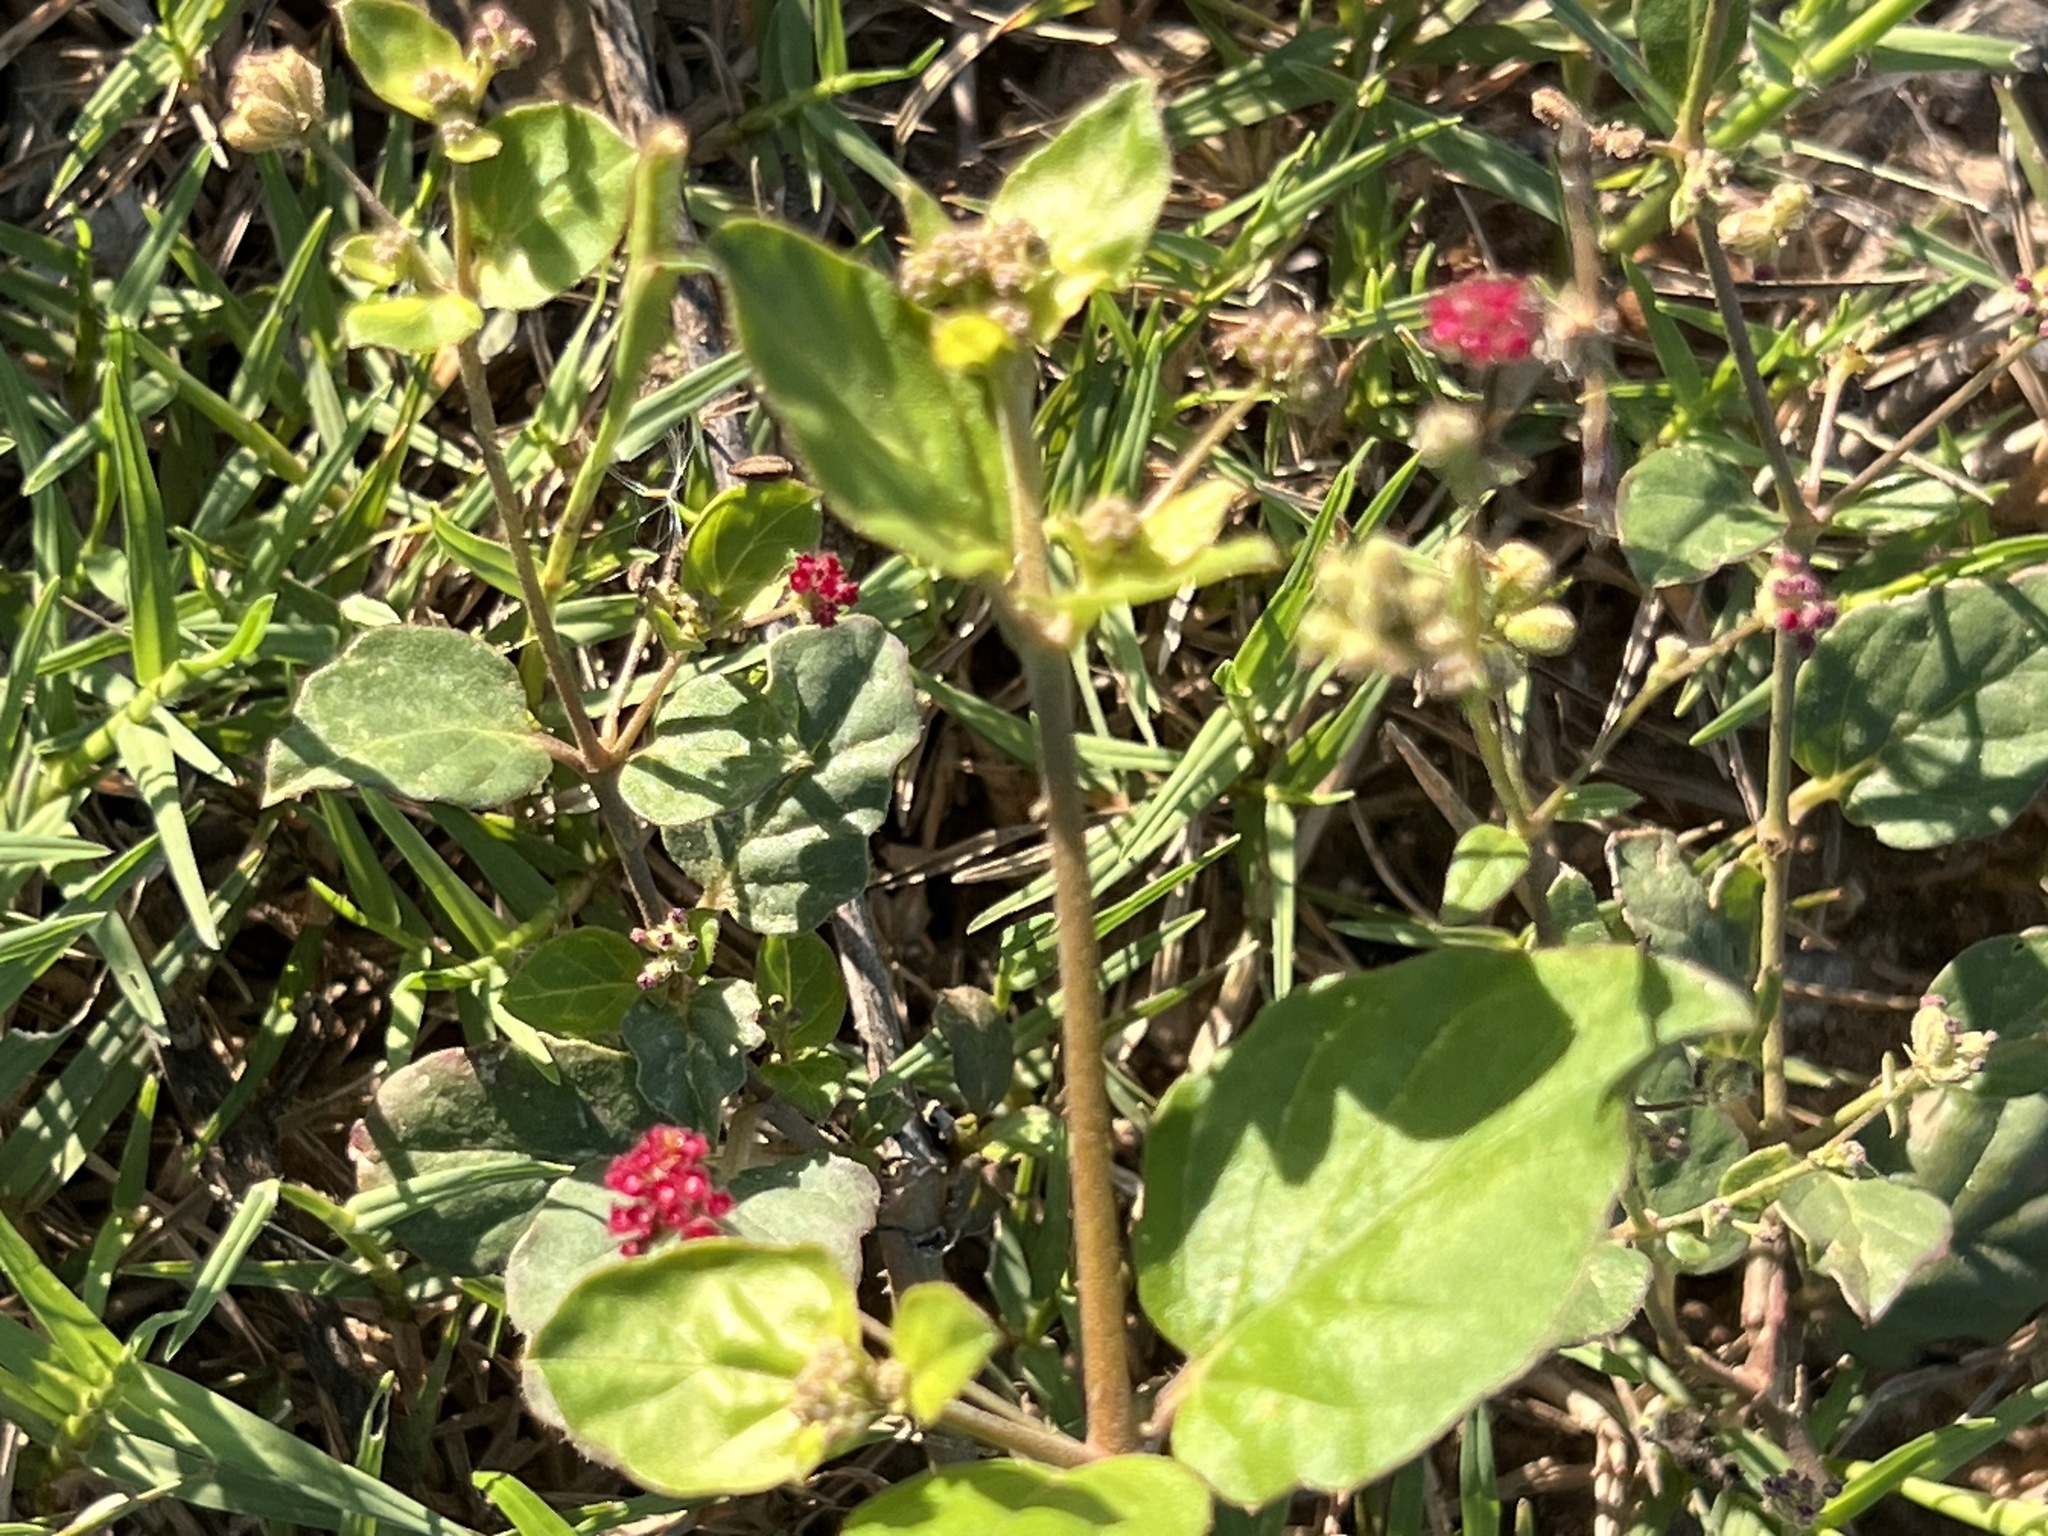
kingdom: Plantae
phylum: Tracheophyta
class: Magnoliopsida
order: Caryophyllales
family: Nyctaginaceae
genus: Boerhavia
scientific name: Boerhavia coccinea
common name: Scarlet spiderling
